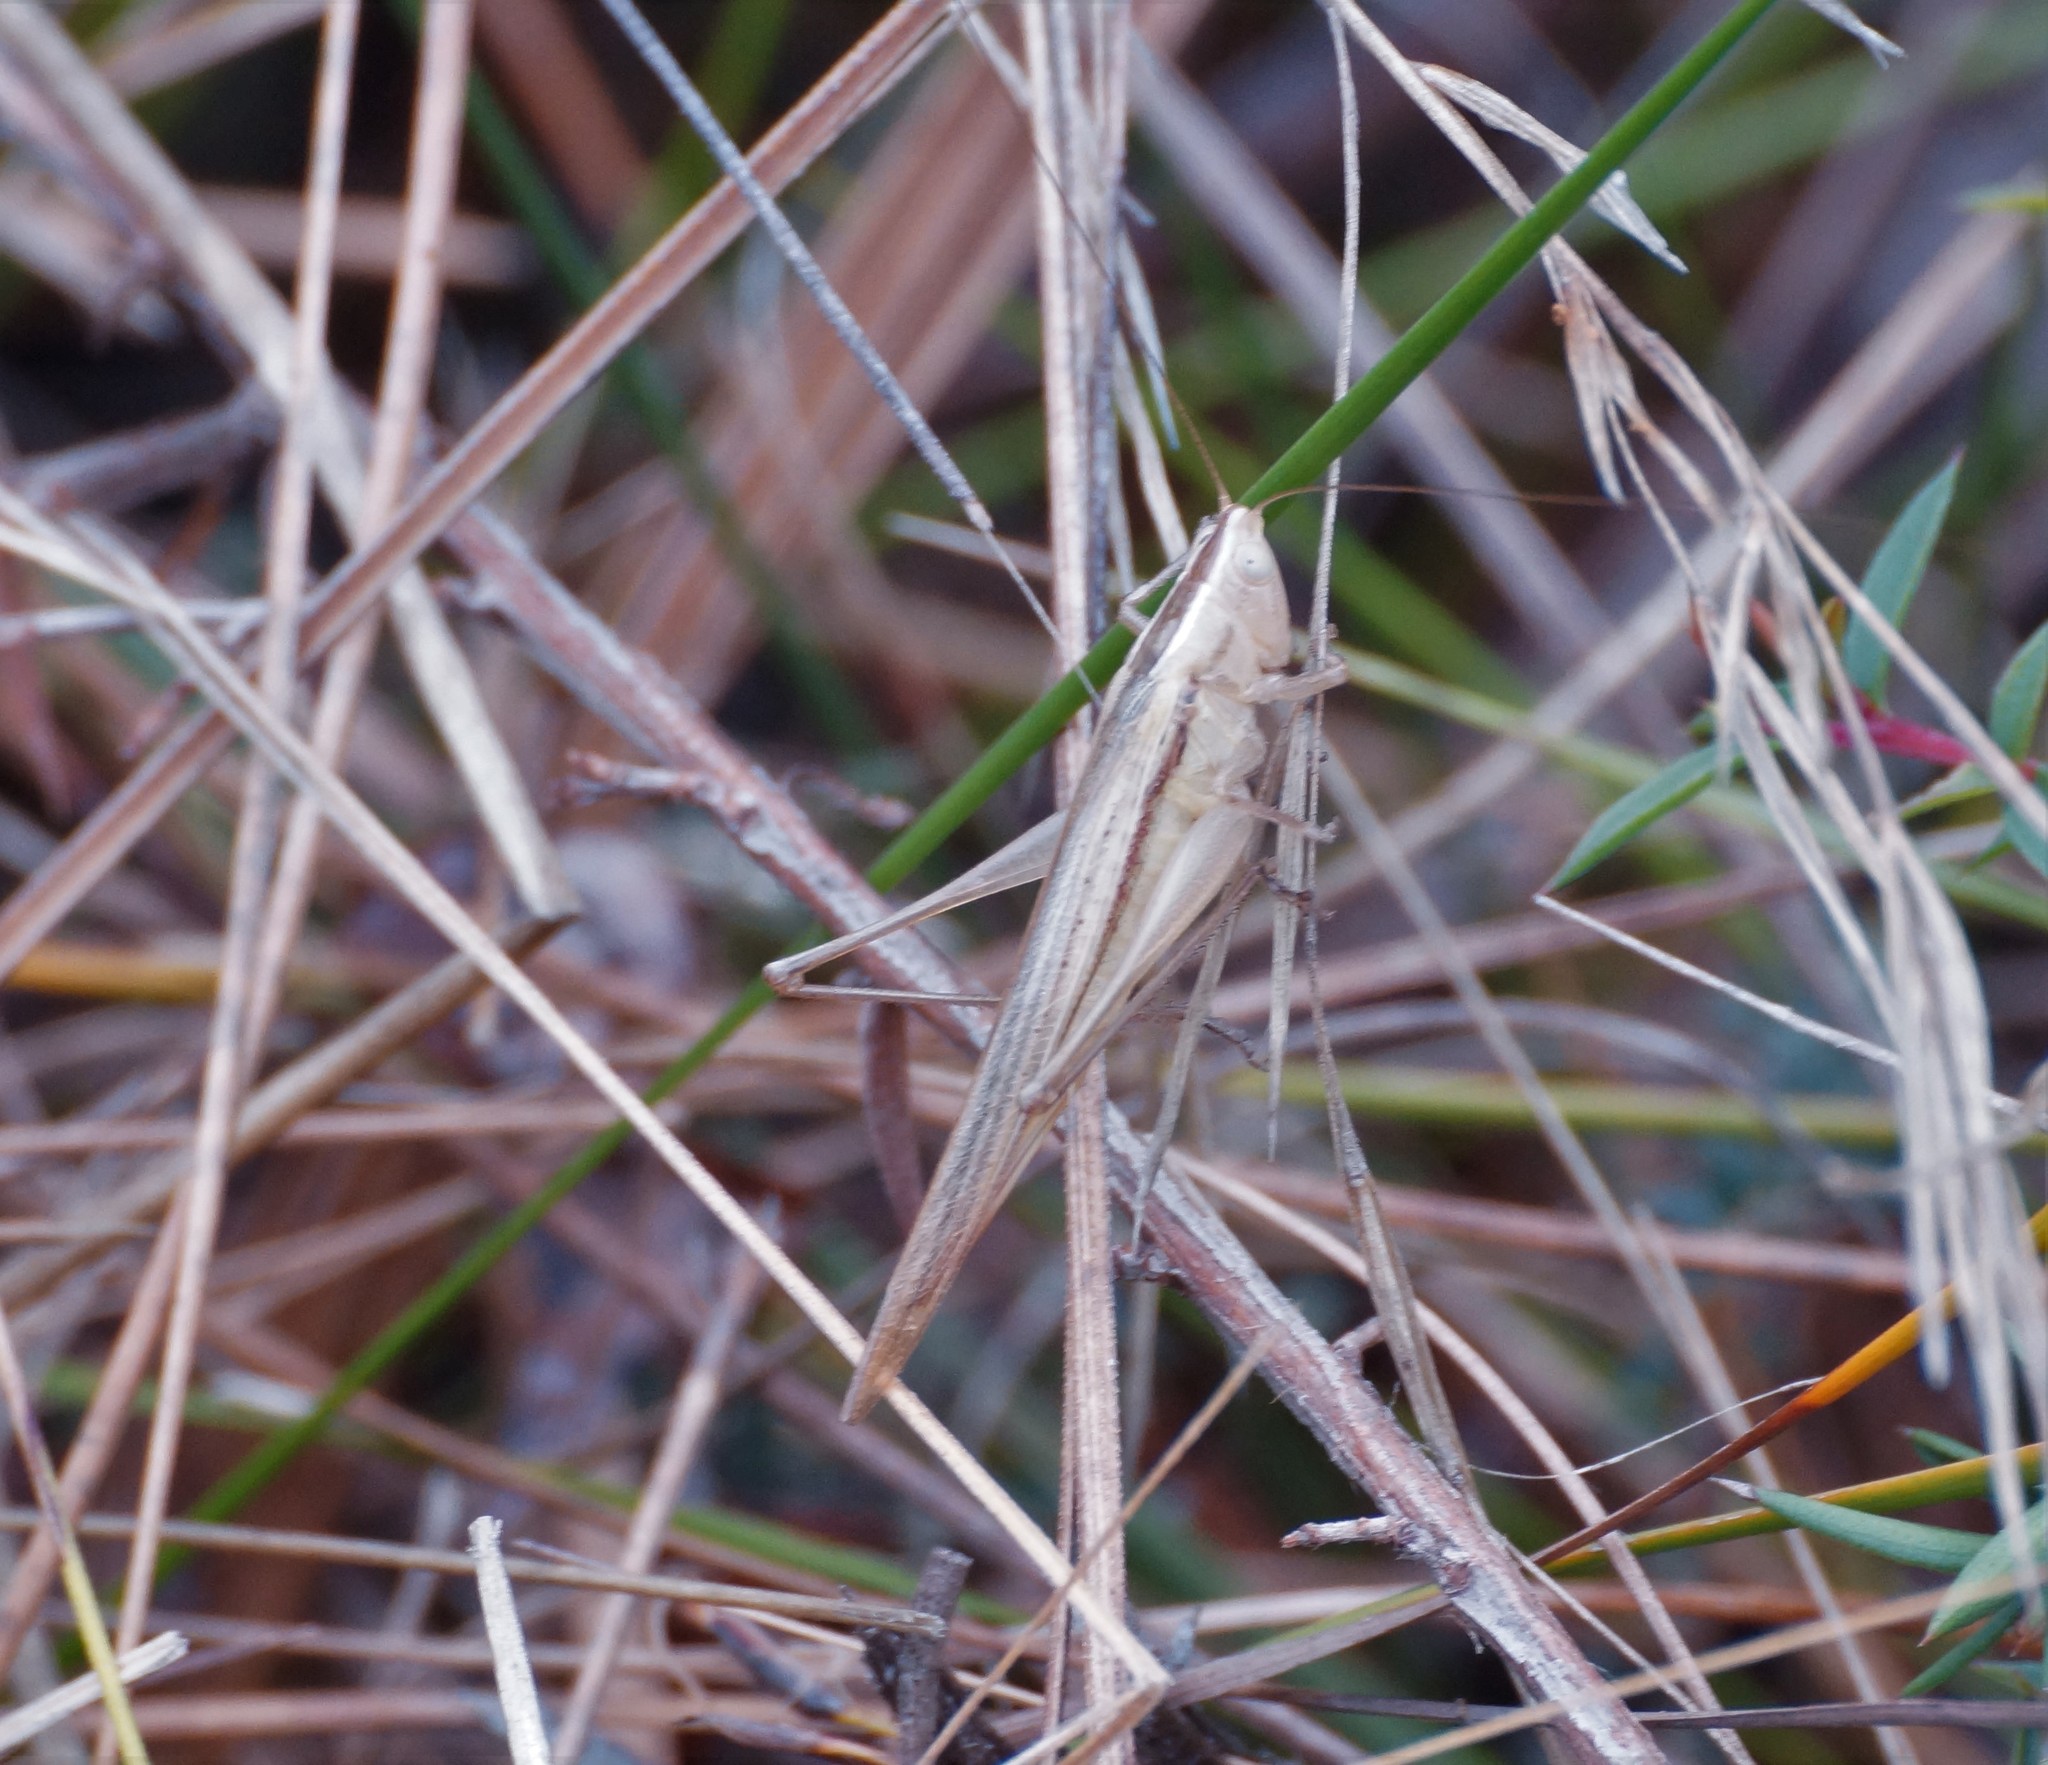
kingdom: Animalia
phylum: Arthropoda
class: Insecta
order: Orthoptera
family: Tettigoniidae
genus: Conocephalus
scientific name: Conocephalus upoluensis
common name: Upolu meadow katydid
